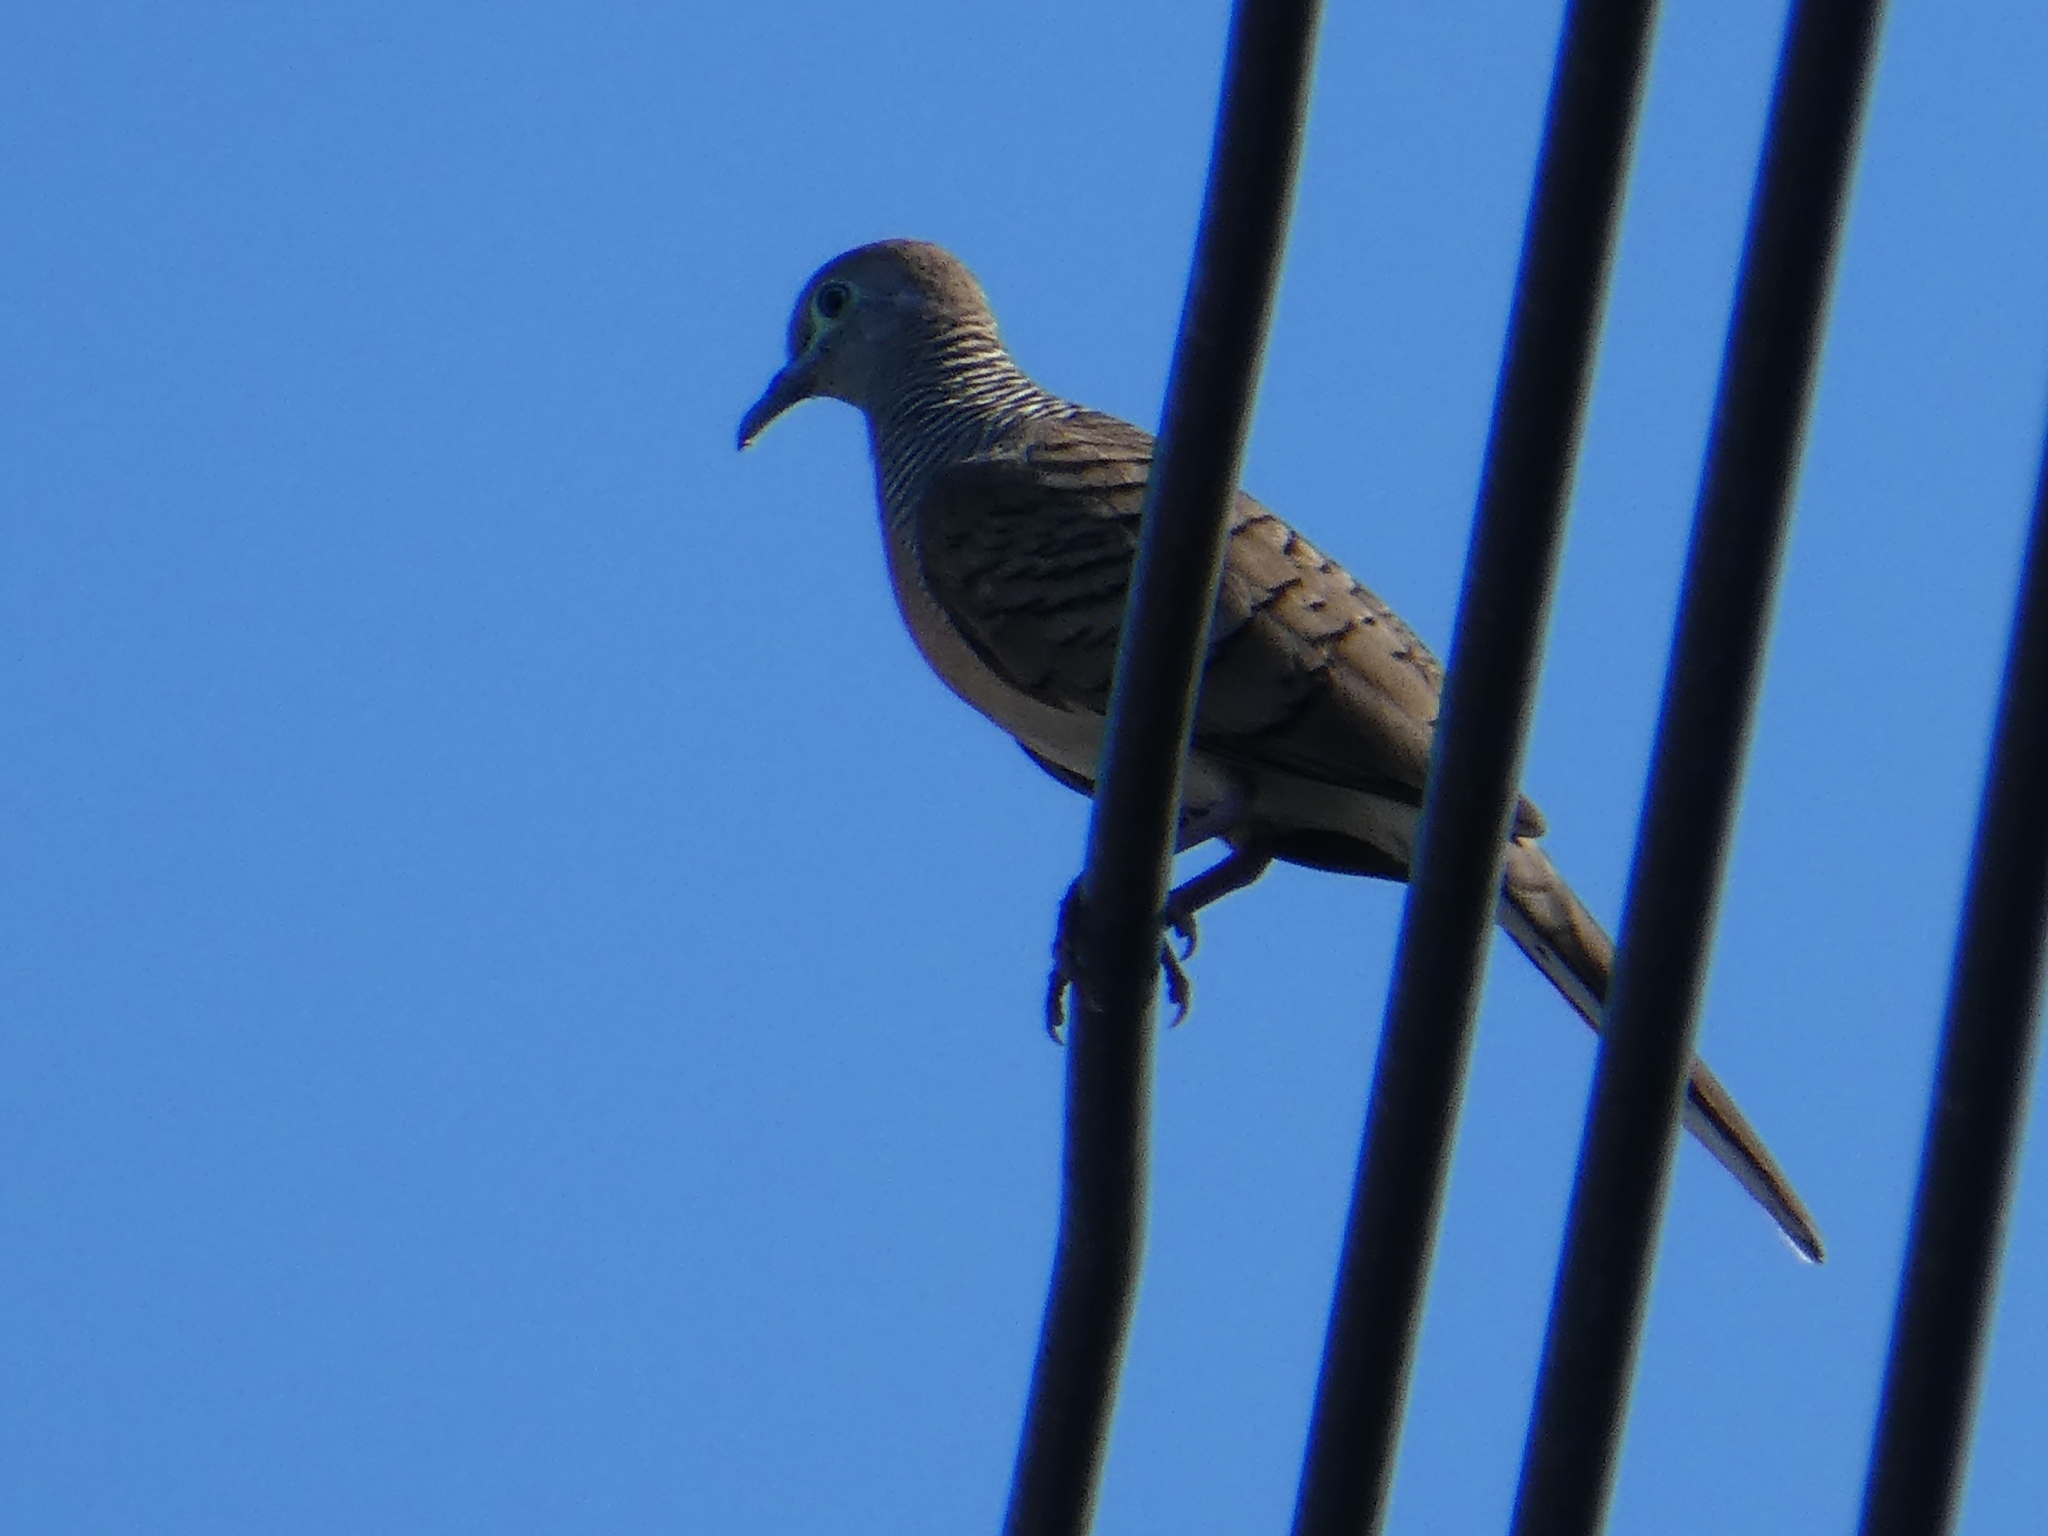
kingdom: Animalia
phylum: Chordata
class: Aves
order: Columbiformes
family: Columbidae
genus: Geopelia
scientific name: Geopelia striata
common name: Zebra dove
